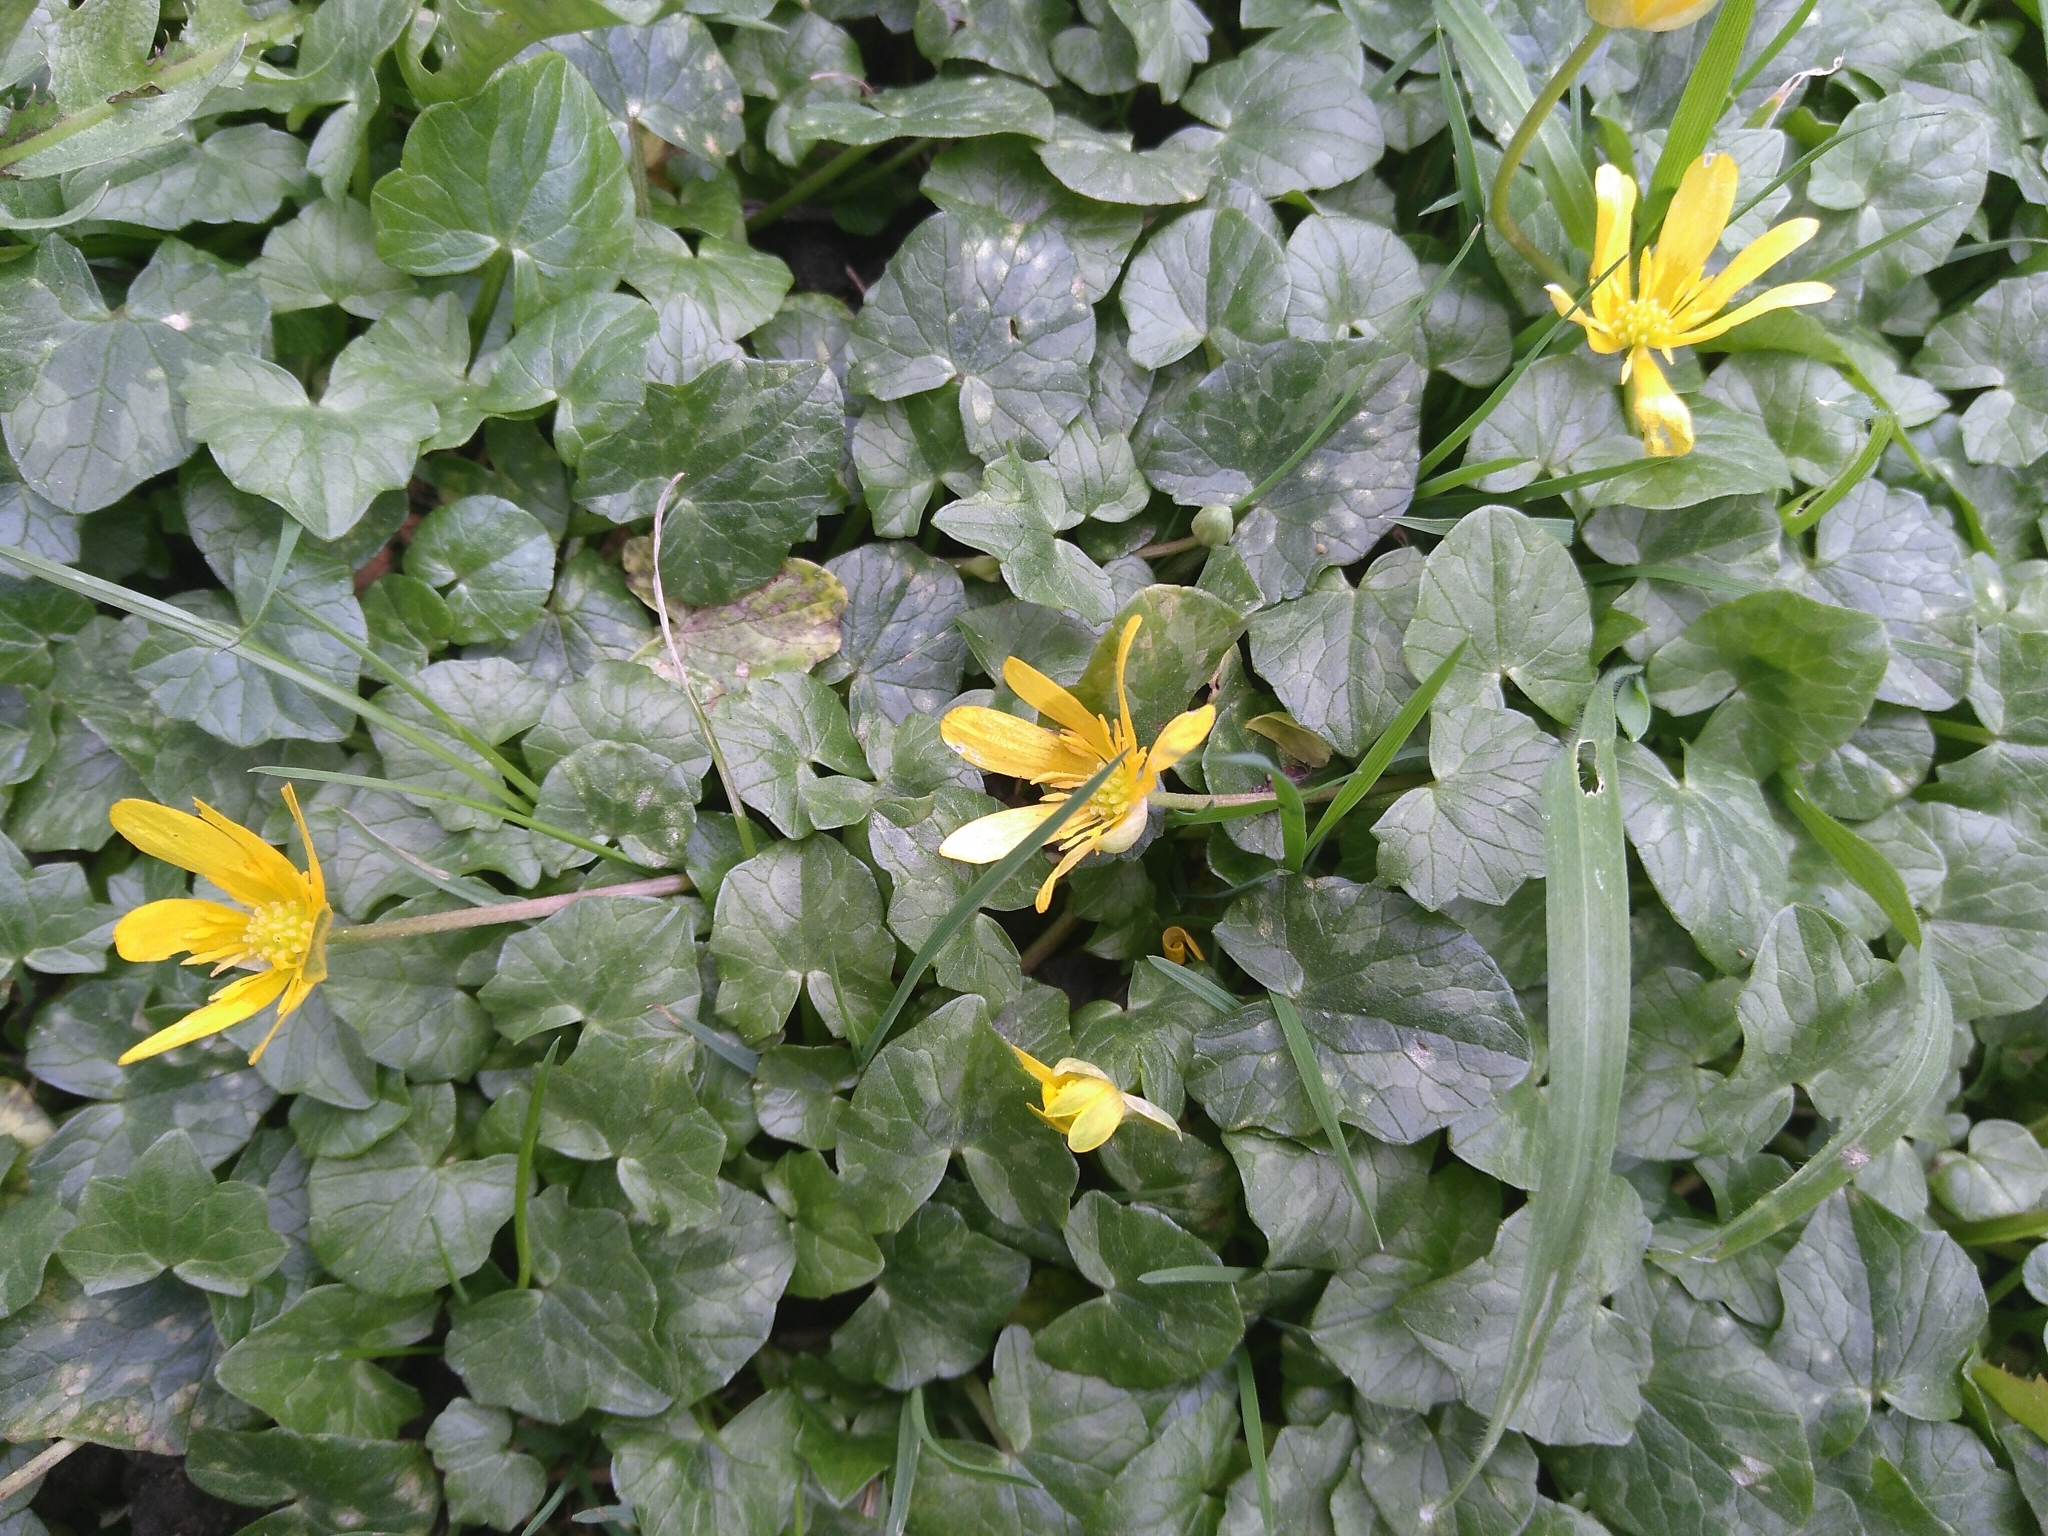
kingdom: Plantae
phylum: Tracheophyta
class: Magnoliopsida
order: Ranunculales
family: Ranunculaceae
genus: Ficaria
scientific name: Ficaria verna
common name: Lesser celandine
